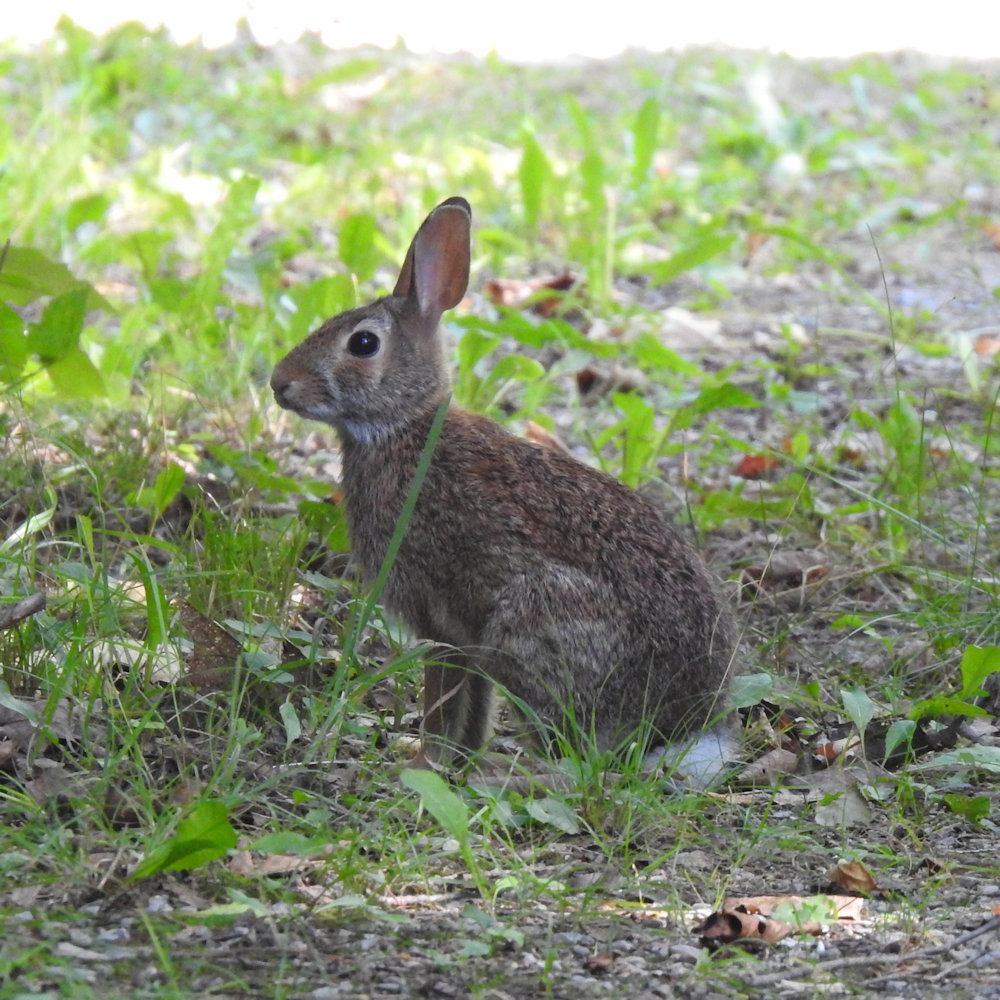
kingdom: Animalia
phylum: Chordata
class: Mammalia
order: Lagomorpha
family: Leporidae
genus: Sylvilagus
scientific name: Sylvilagus floridanus
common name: Eastern cottontail
